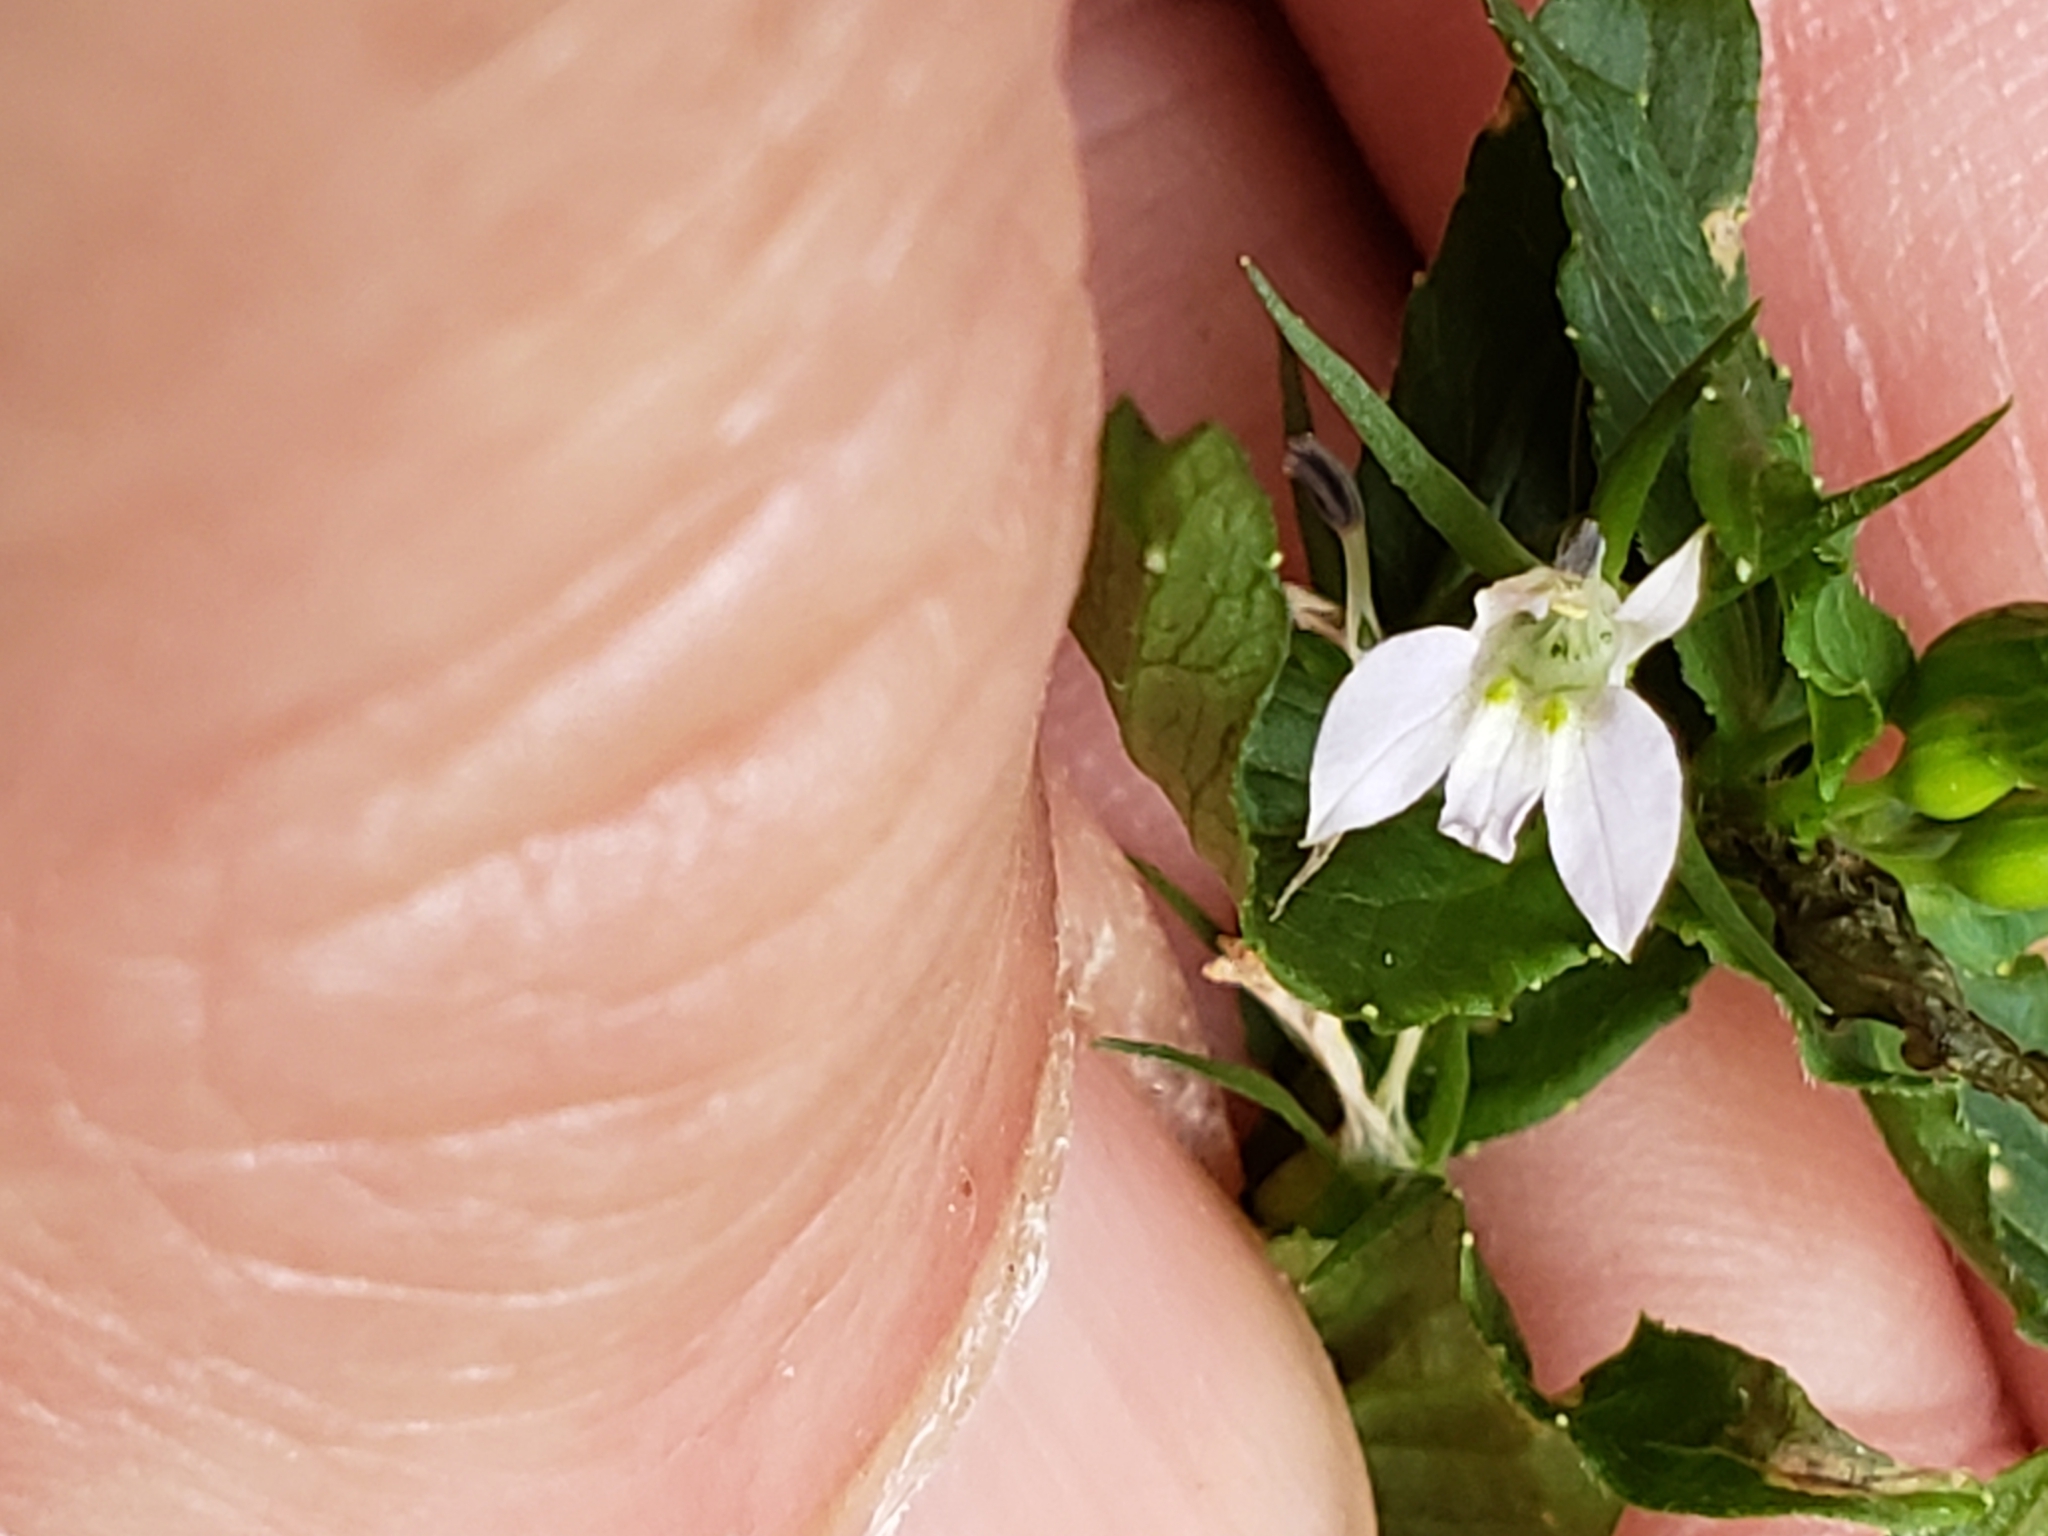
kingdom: Plantae
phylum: Tracheophyta
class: Magnoliopsida
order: Asterales
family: Campanulaceae
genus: Lobelia
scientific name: Lobelia inflata
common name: Indian tobacco
